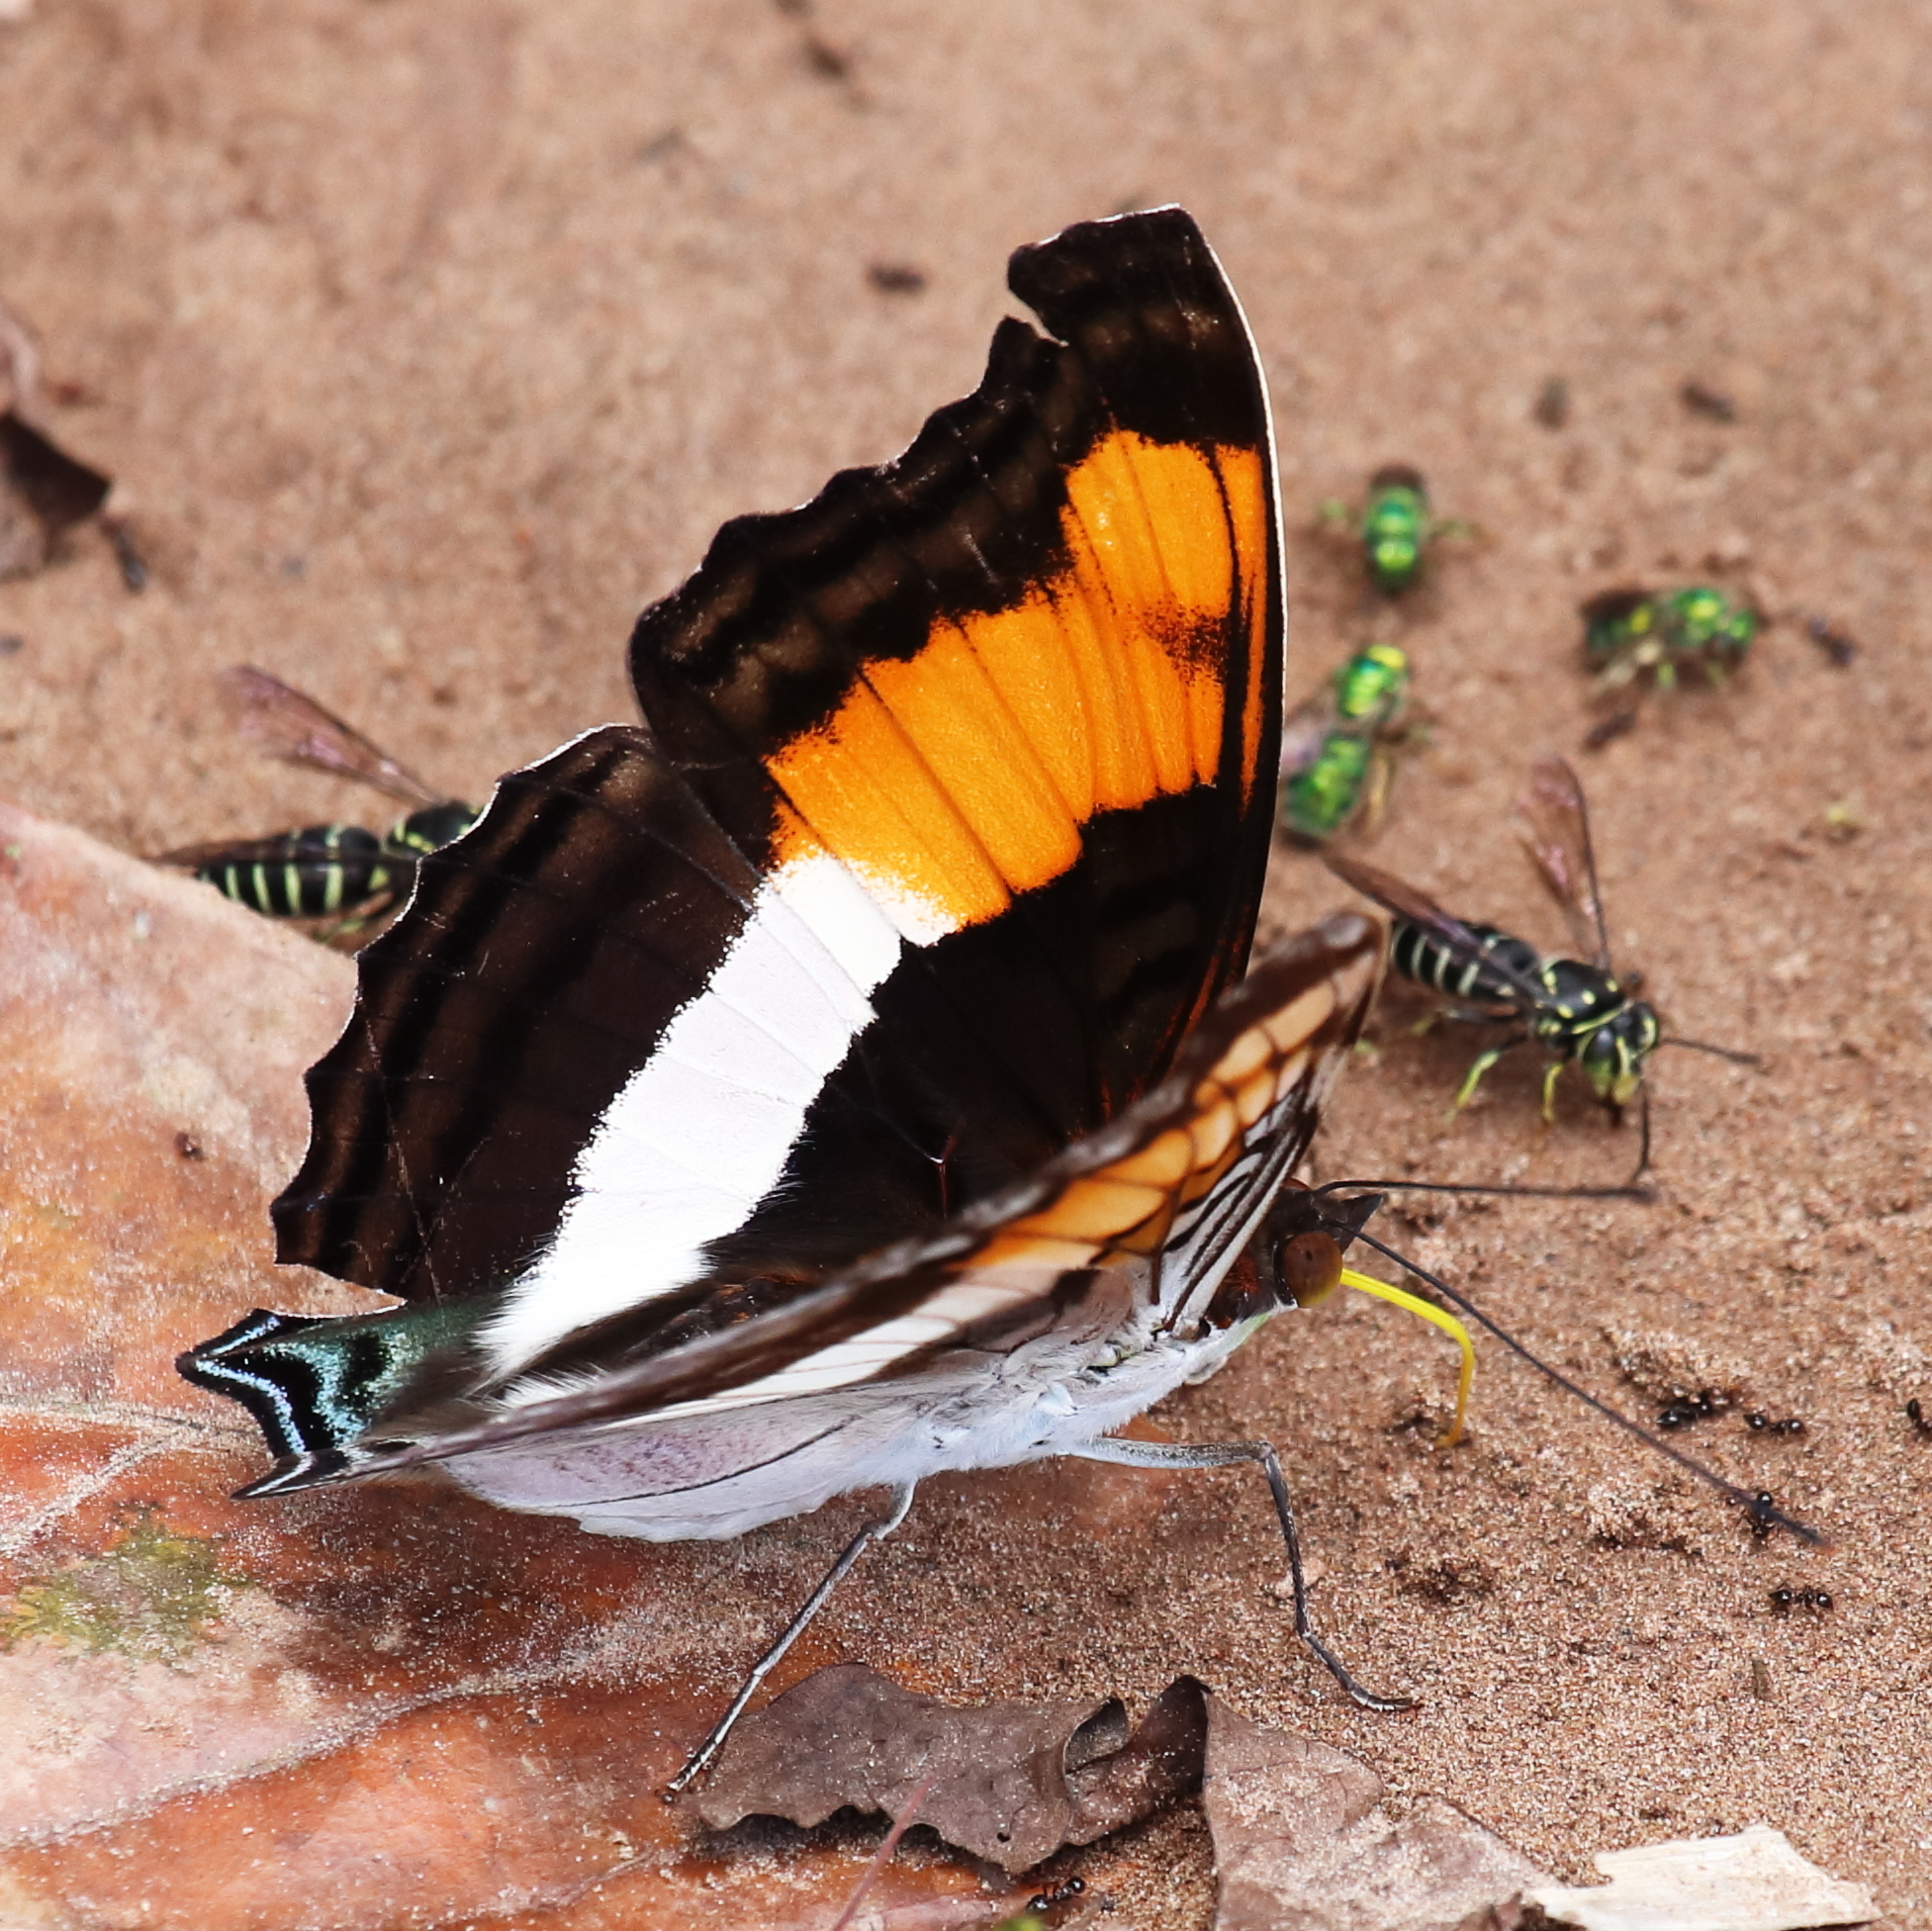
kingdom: Animalia
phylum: Arthropoda
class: Insecta
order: Lepidoptera
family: Nymphalidae
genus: Doxocopa
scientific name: Doxocopa laure
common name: Silver emperor
